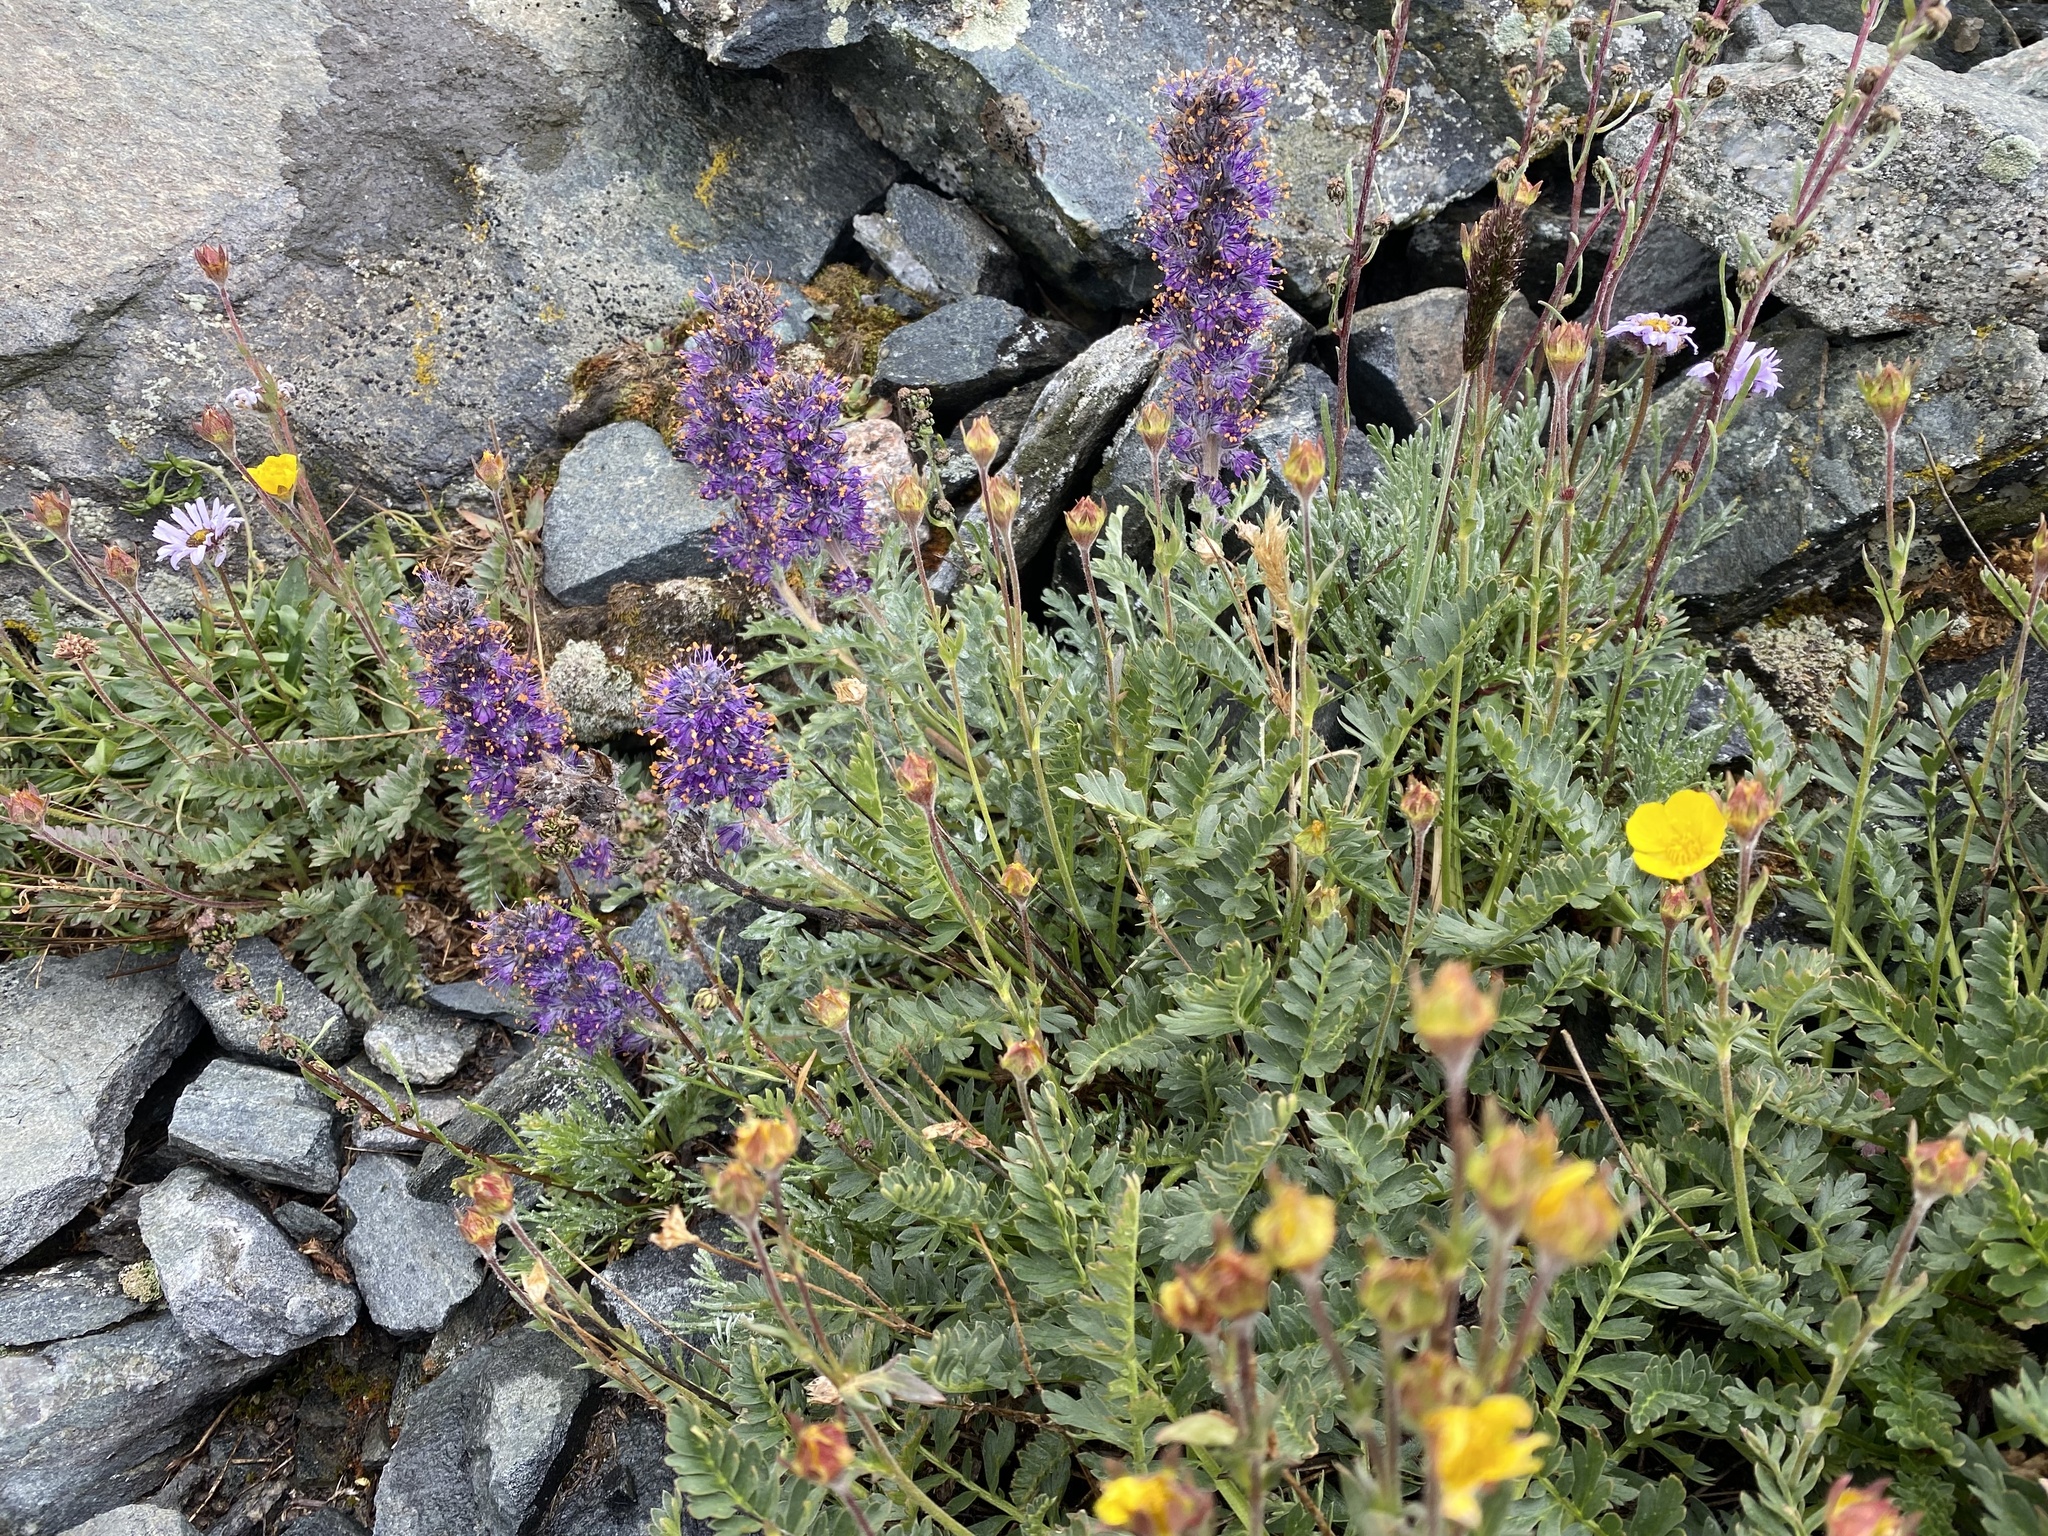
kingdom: Plantae
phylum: Tracheophyta
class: Magnoliopsida
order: Boraginales
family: Hydrophyllaceae
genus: Phacelia
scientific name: Phacelia sericea
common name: Silky phacelia
